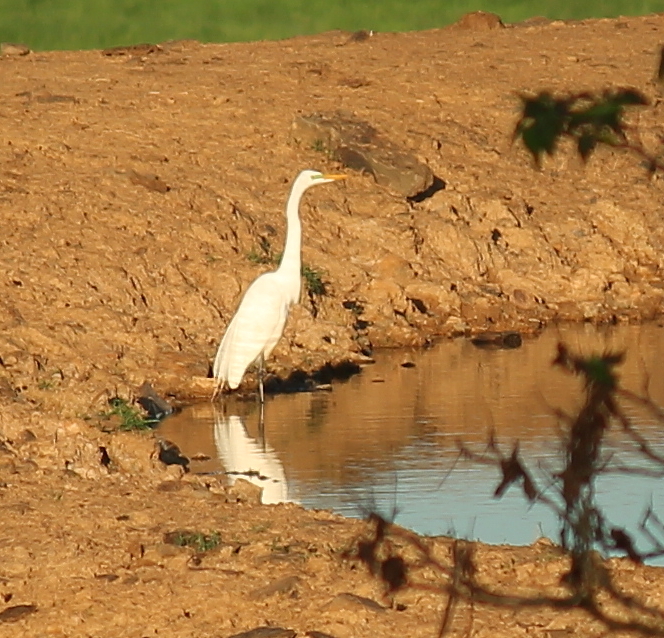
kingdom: Animalia
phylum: Chordata
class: Aves
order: Pelecaniformes
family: Ardeidae
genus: Ardea
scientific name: Ardea alba
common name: Great egret
